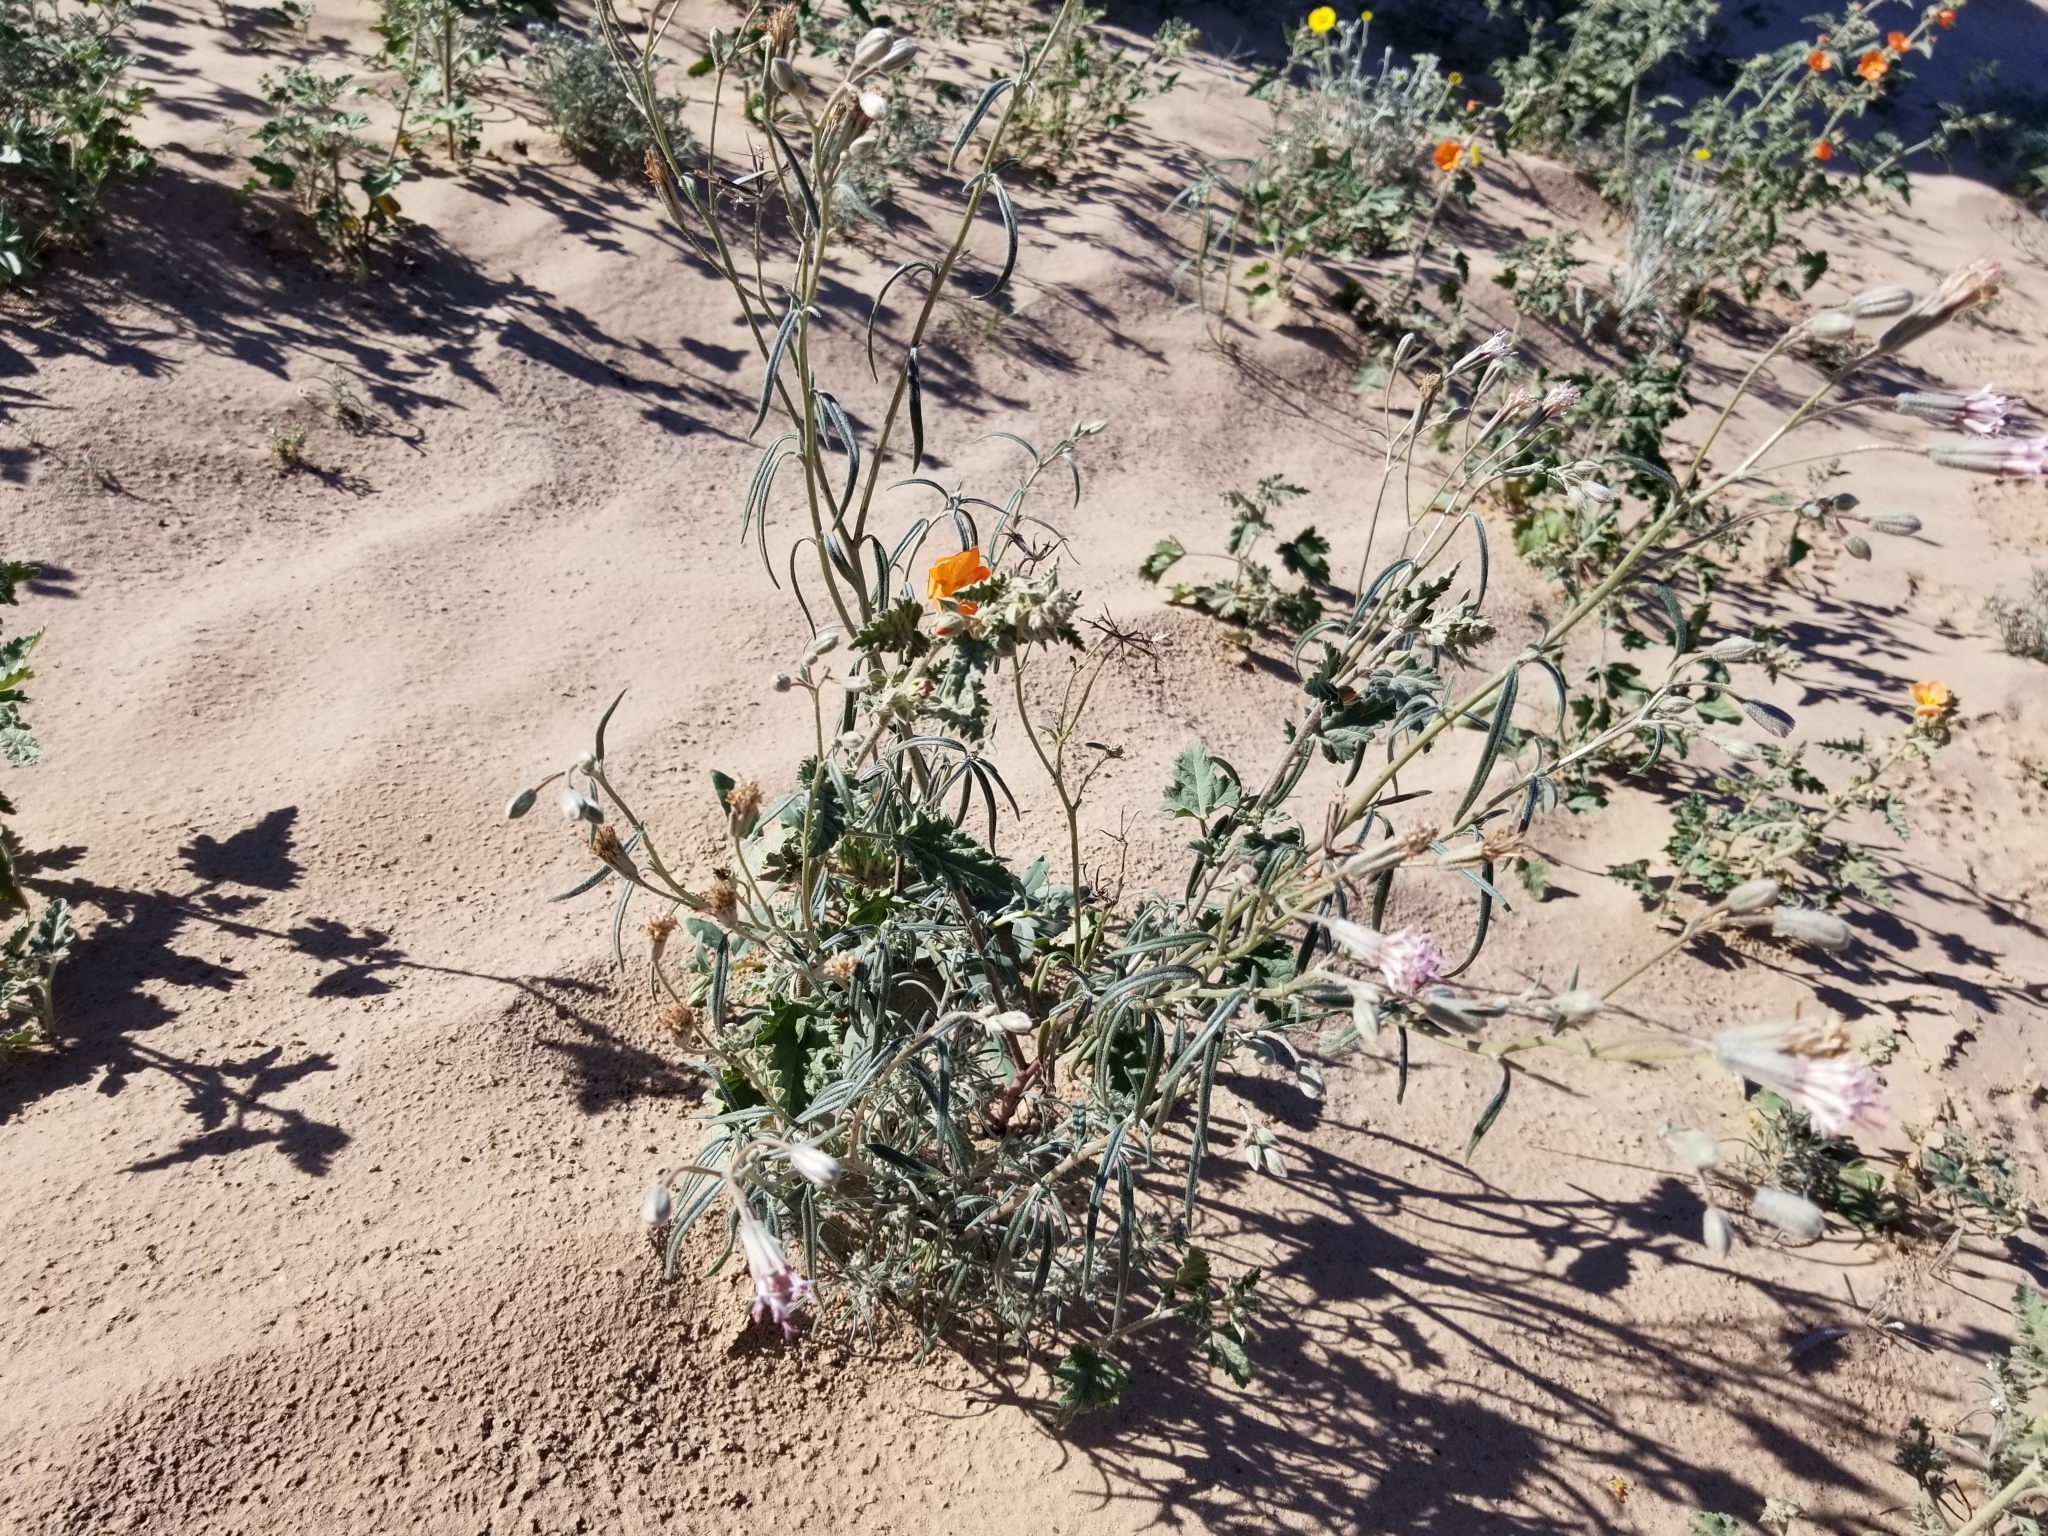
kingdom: Plantae
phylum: Tracheophyta
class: Magnoliopsida
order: Asterales
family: Asteraceae
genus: Palafoxia
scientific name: Palafoxia arida
